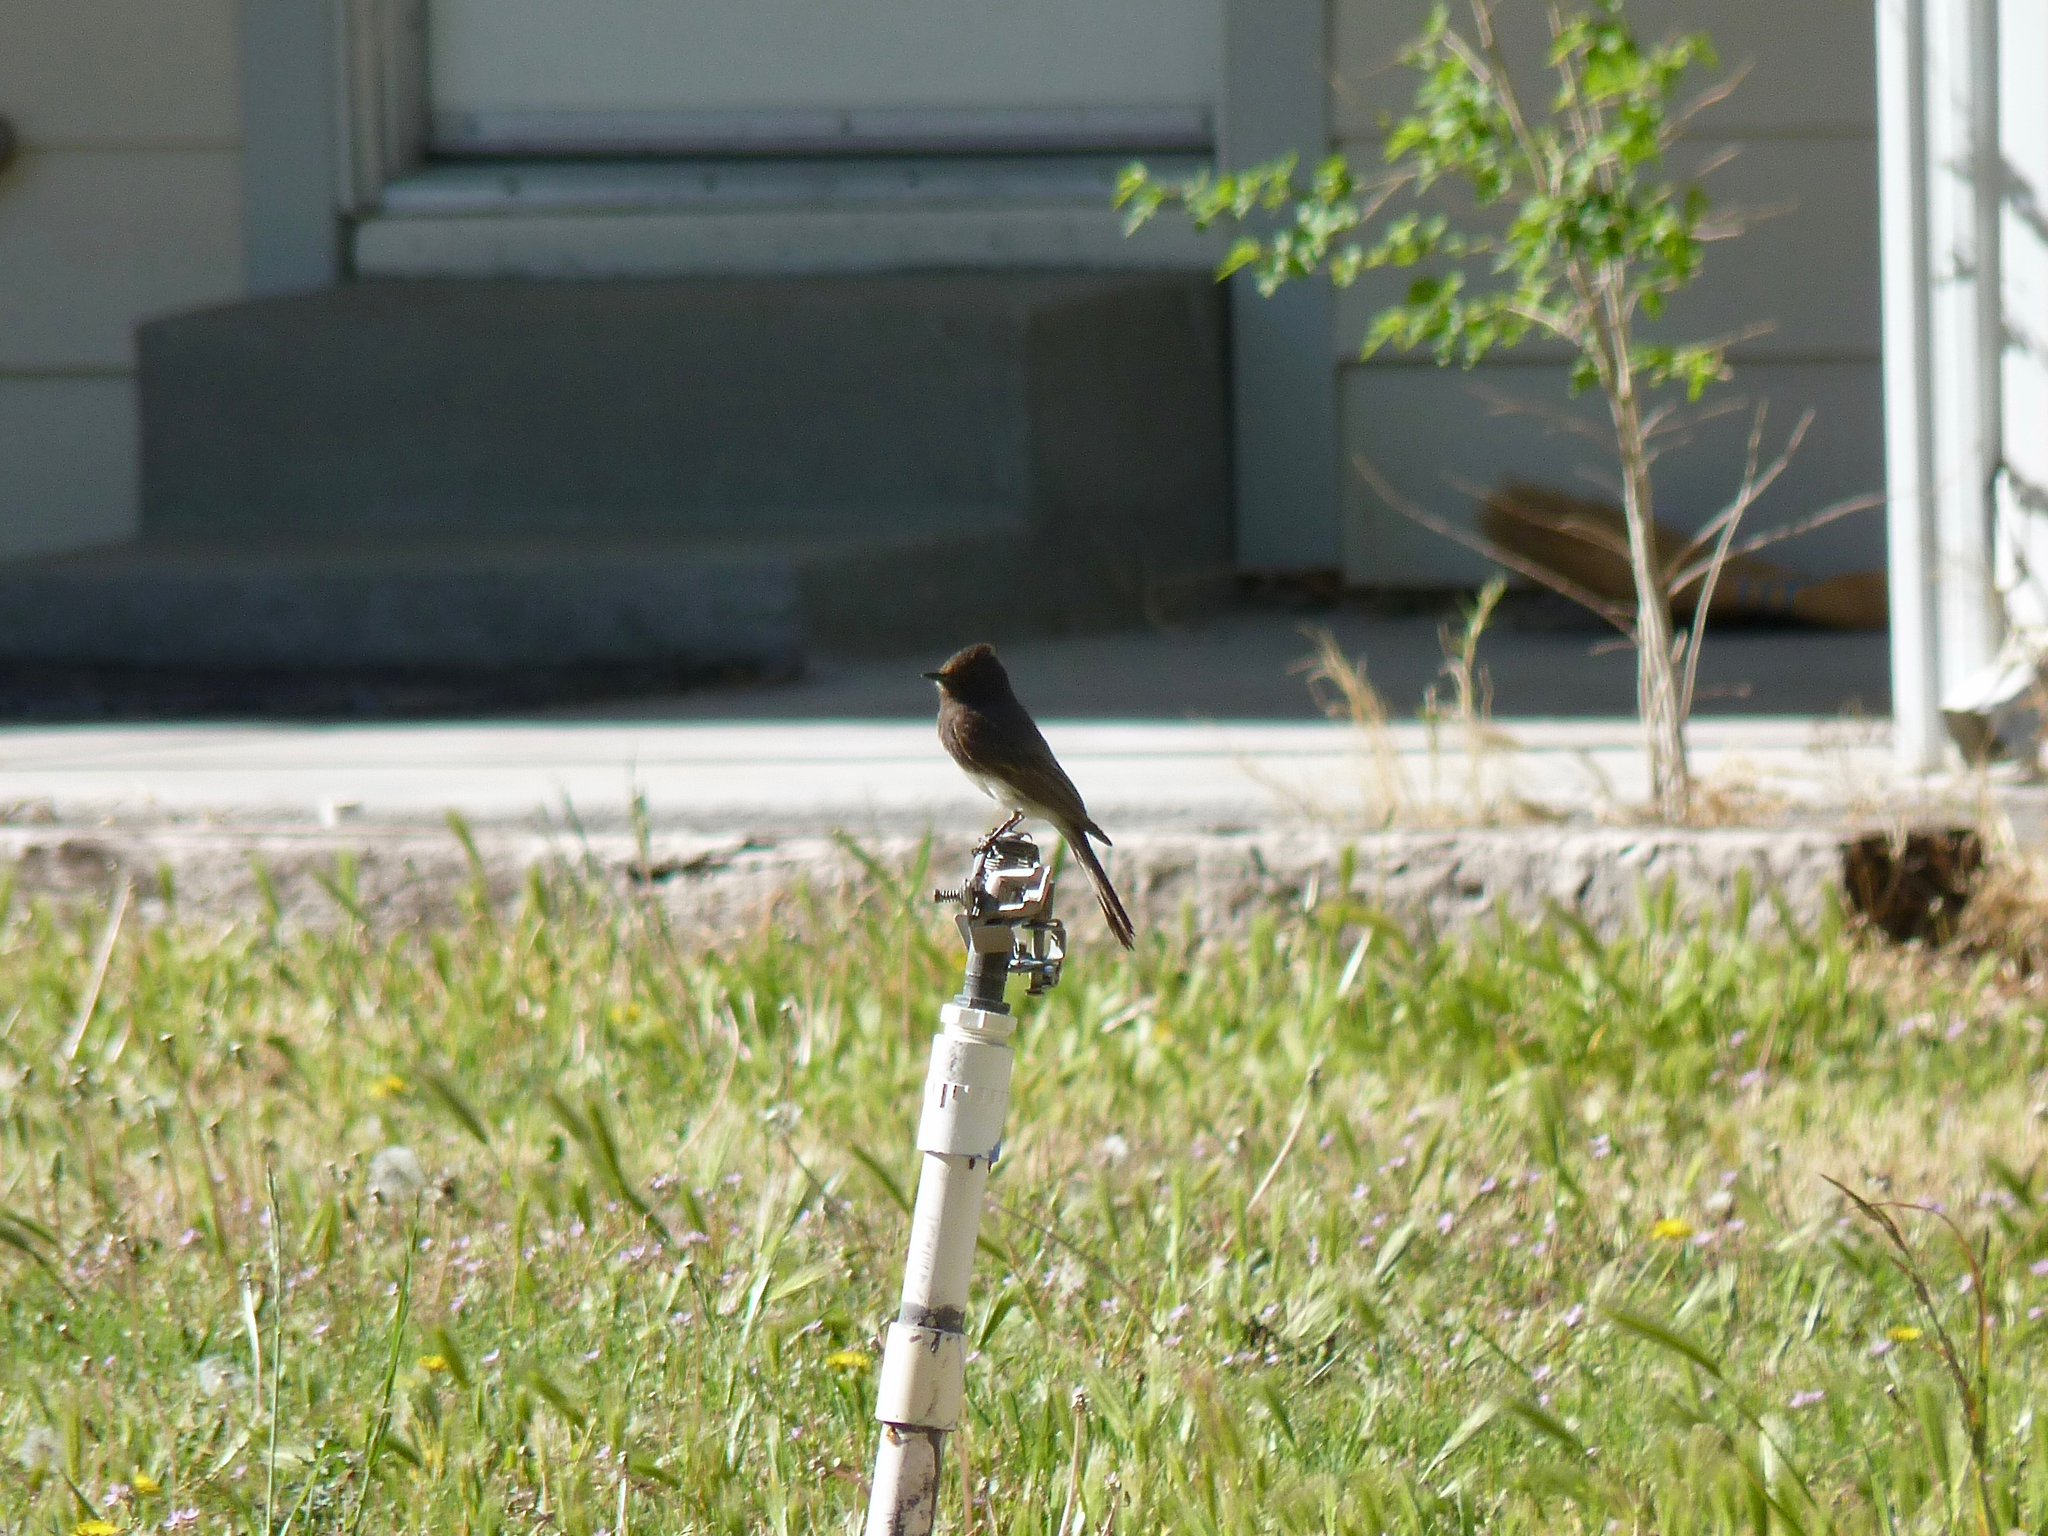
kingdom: Animalia
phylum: Chordata
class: Aves
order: Passeriformes
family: Tyrannidae
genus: Sayornis
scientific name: Sayornis nigricans
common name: Black phoebe
